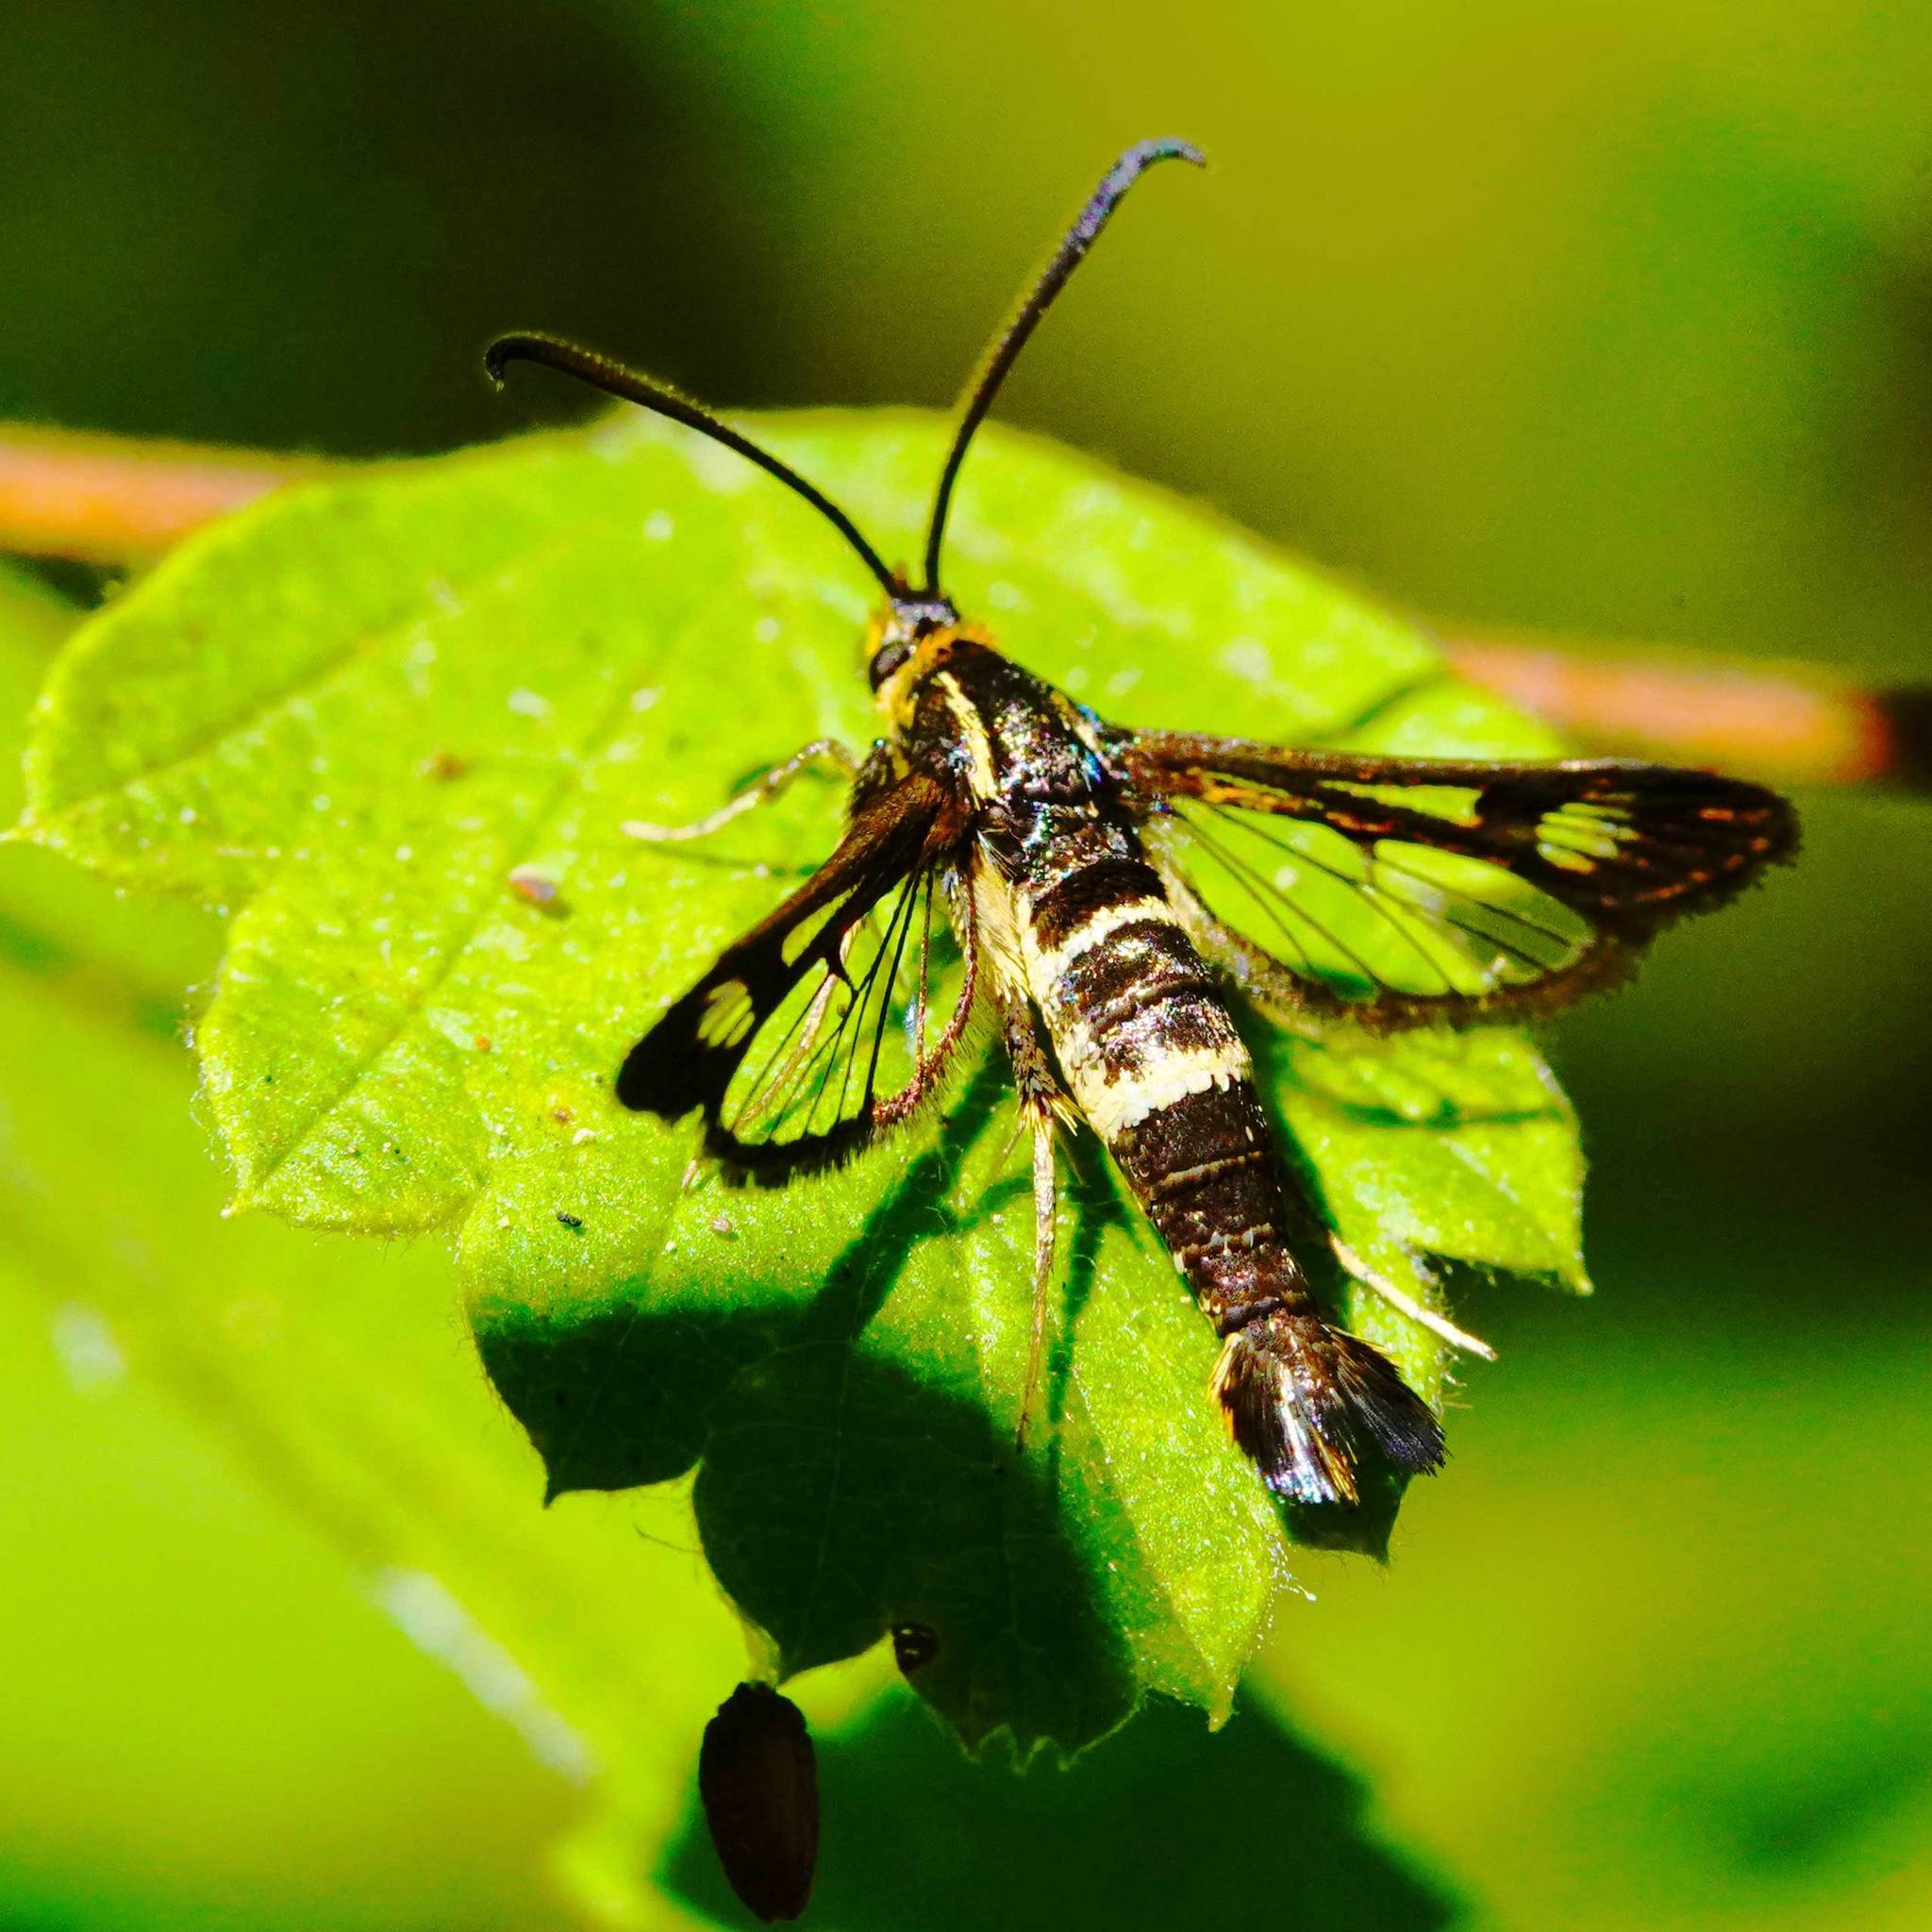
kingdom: Animalia
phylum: Arthropoda
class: Insecta
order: Lepidoptera
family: Sesiidae
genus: Synanthedon
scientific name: Synanthedon bibionipennis
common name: Strawberry crown moth
